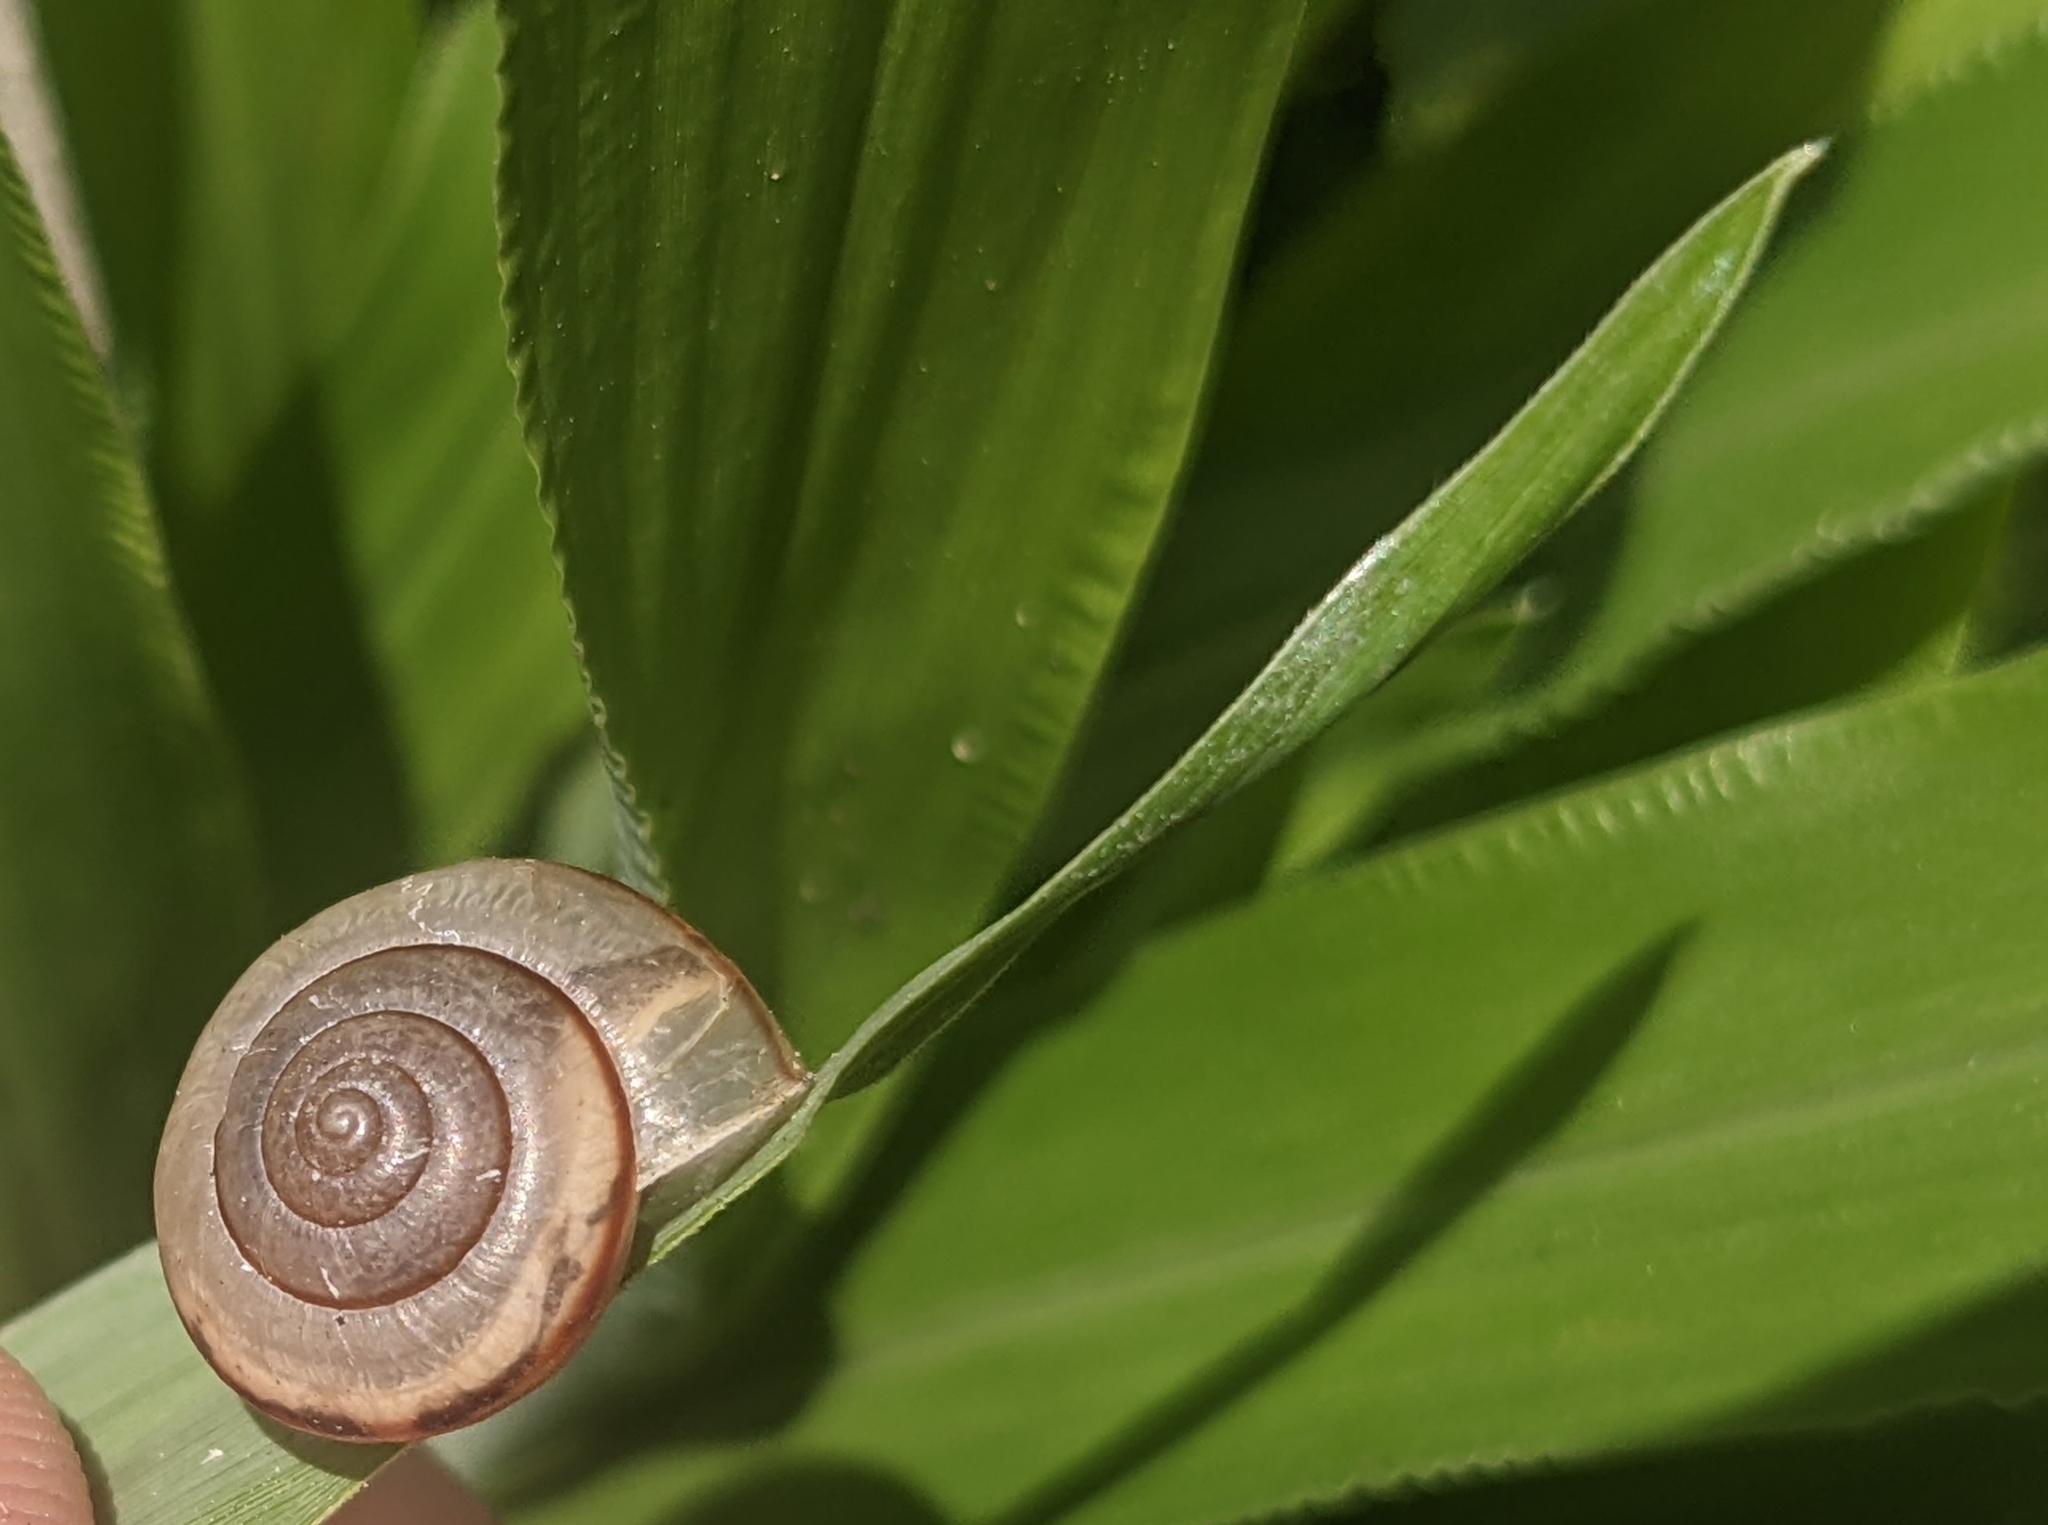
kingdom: Animalia
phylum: Mollusca
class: Gastropoda
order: Stylommatophora
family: Camaenidae
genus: Bradybaena
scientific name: Bradybaena similaris
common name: Asian trampsnail
